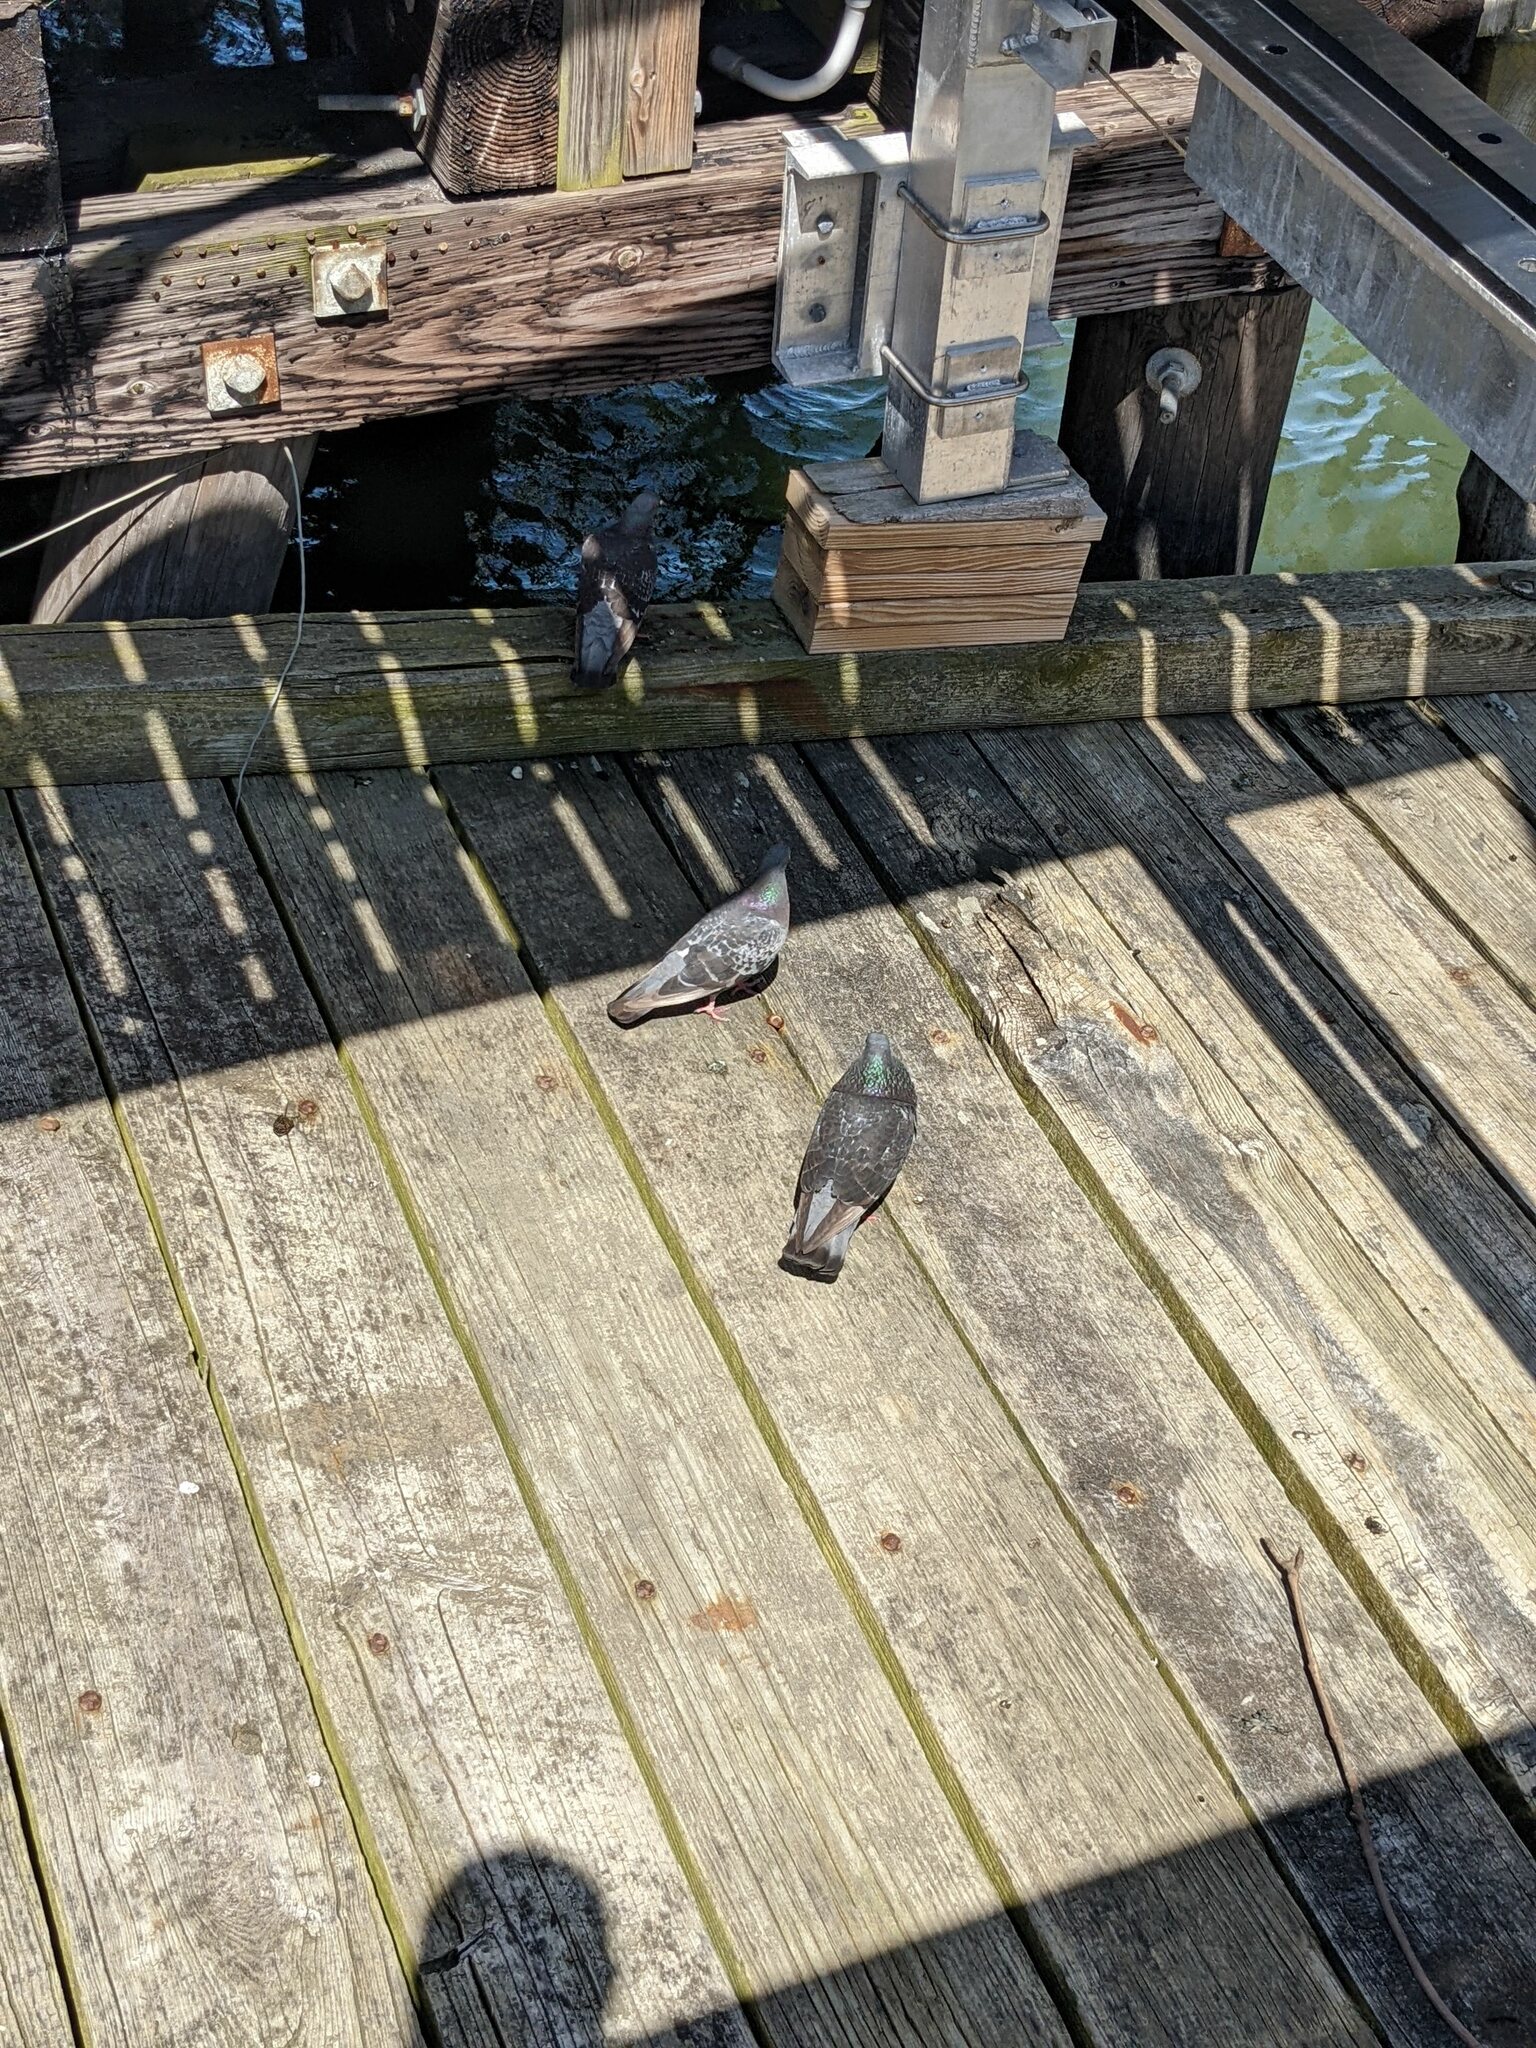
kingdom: Animalia
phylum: Chordata
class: Aves
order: Columbiformes
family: Columbidae
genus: Columba
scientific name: Columba livia
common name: Rock pigeon
